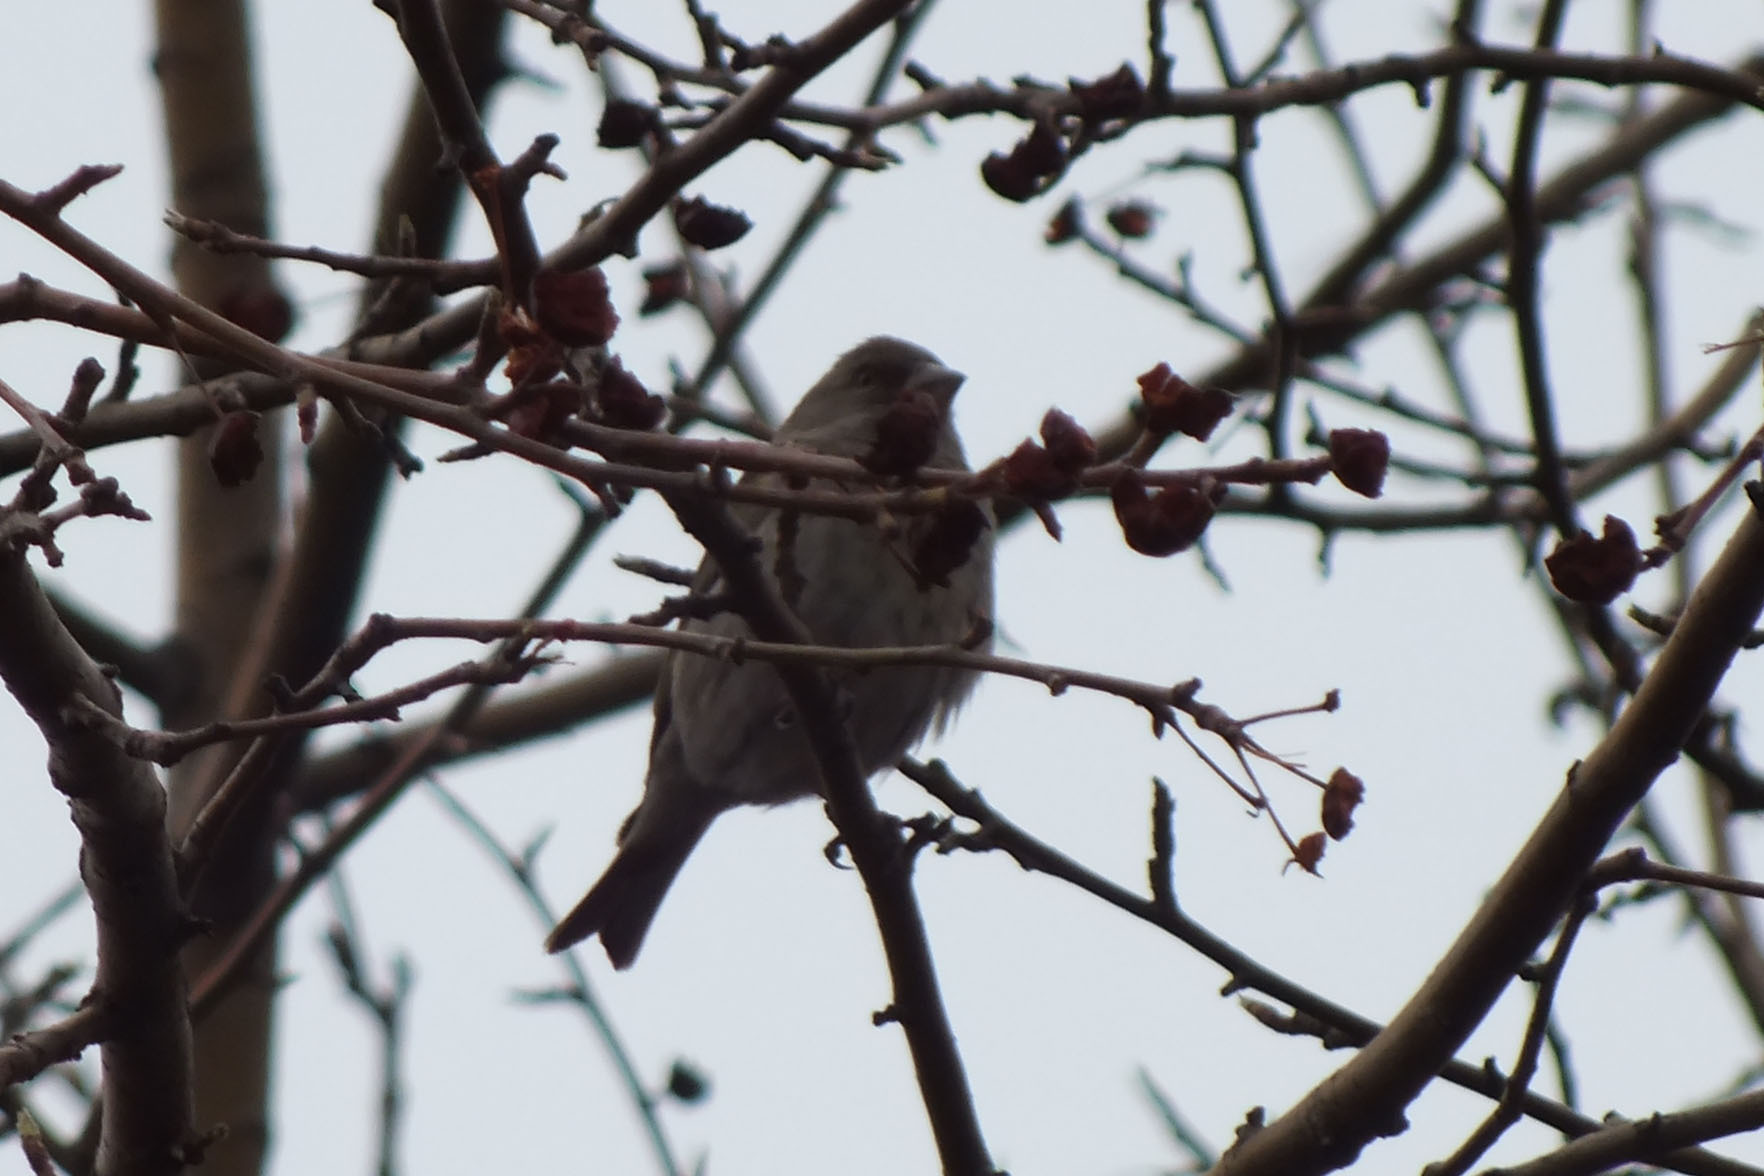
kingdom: Plantae
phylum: Tracheophyta
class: Liliopsida
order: Poales
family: Poaceae
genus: Chloris
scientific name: Chloris chloris
